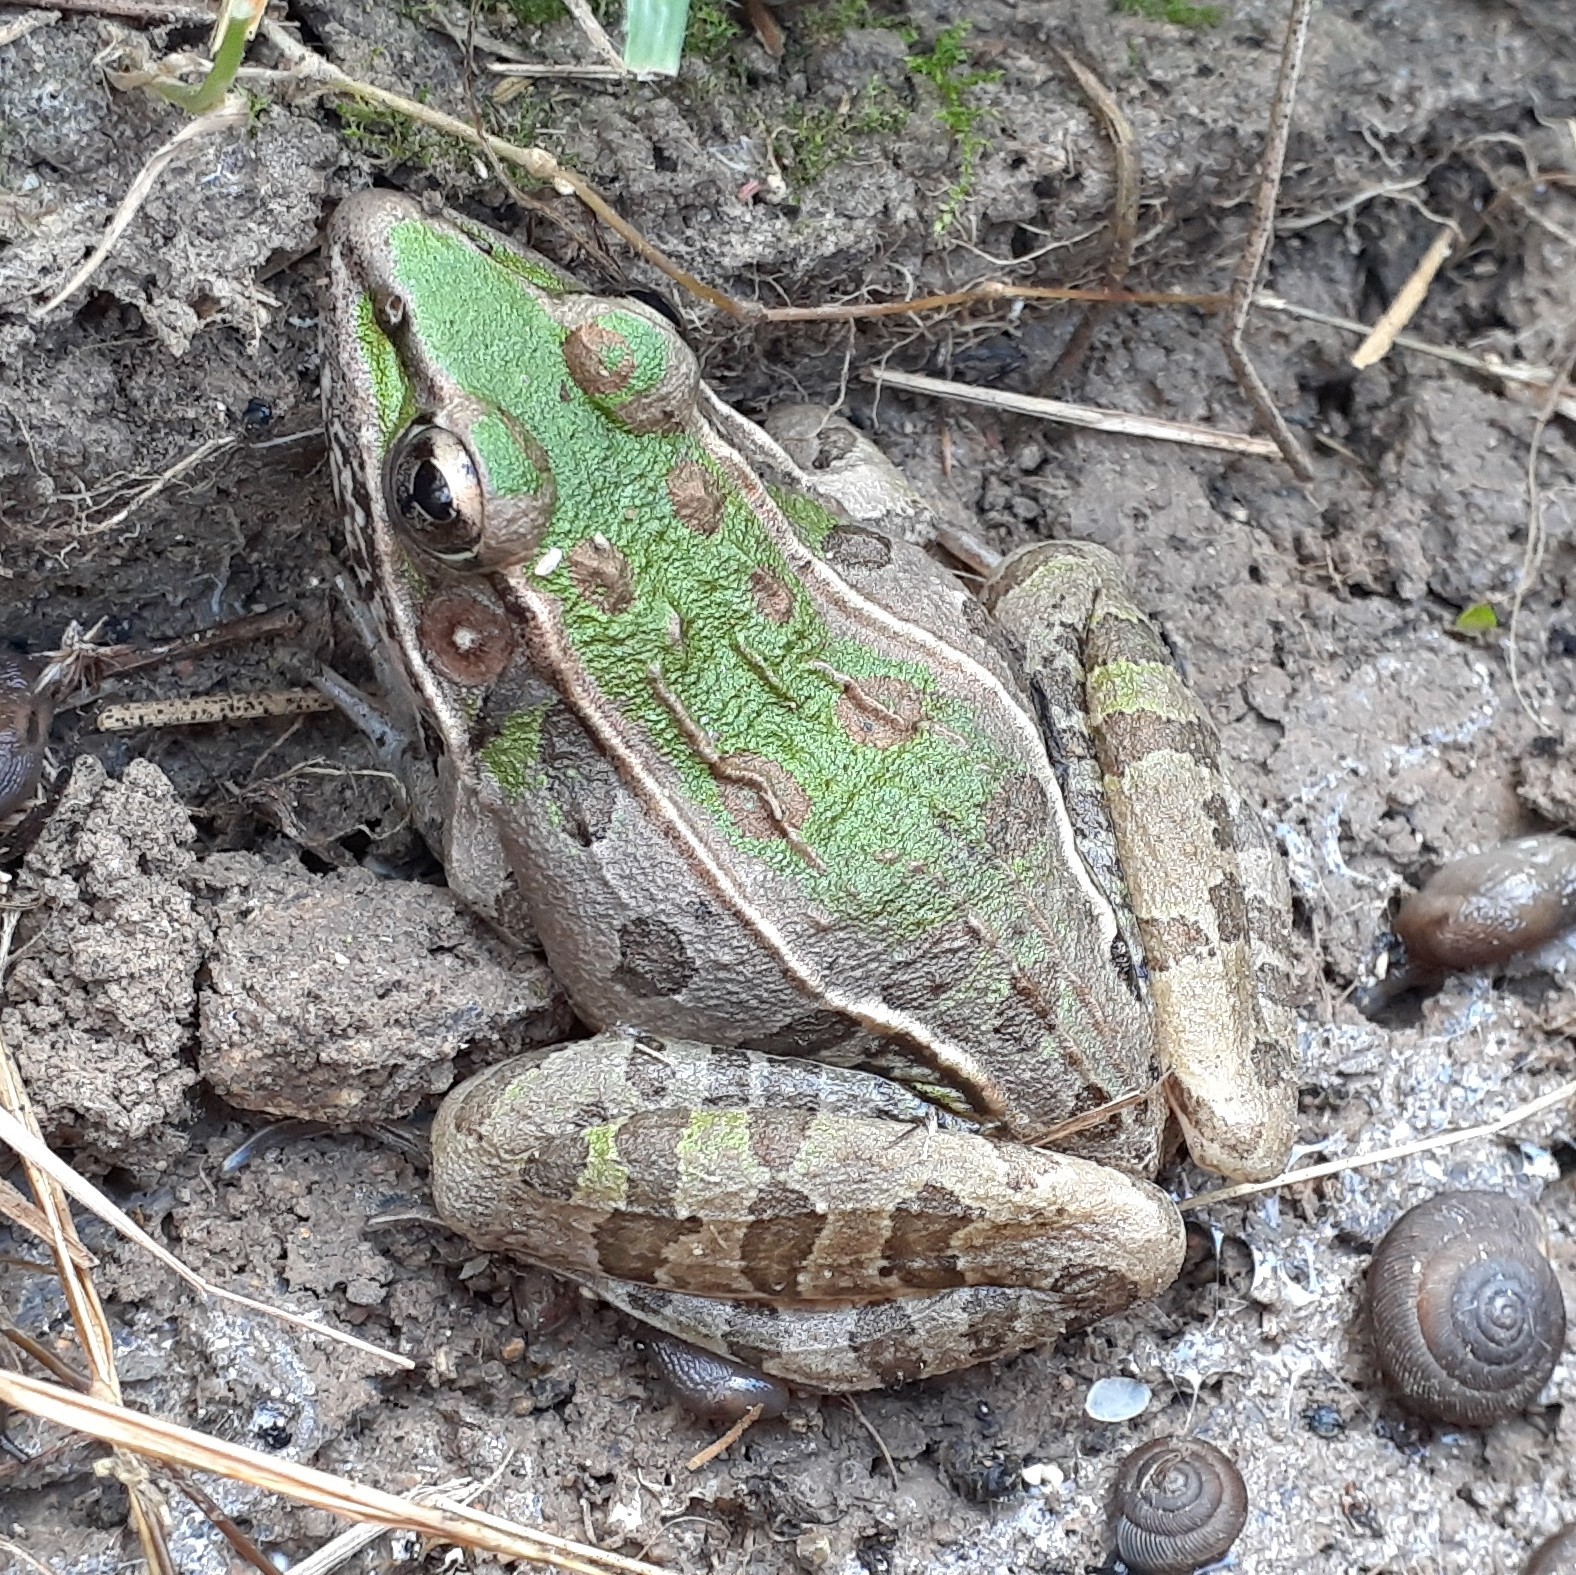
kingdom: Animalia
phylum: Chordata
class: Amphibia
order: Anura
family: Ranidae
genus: Lithobates
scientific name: Lithobates sphenocephalus
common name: Southern leopard frog
